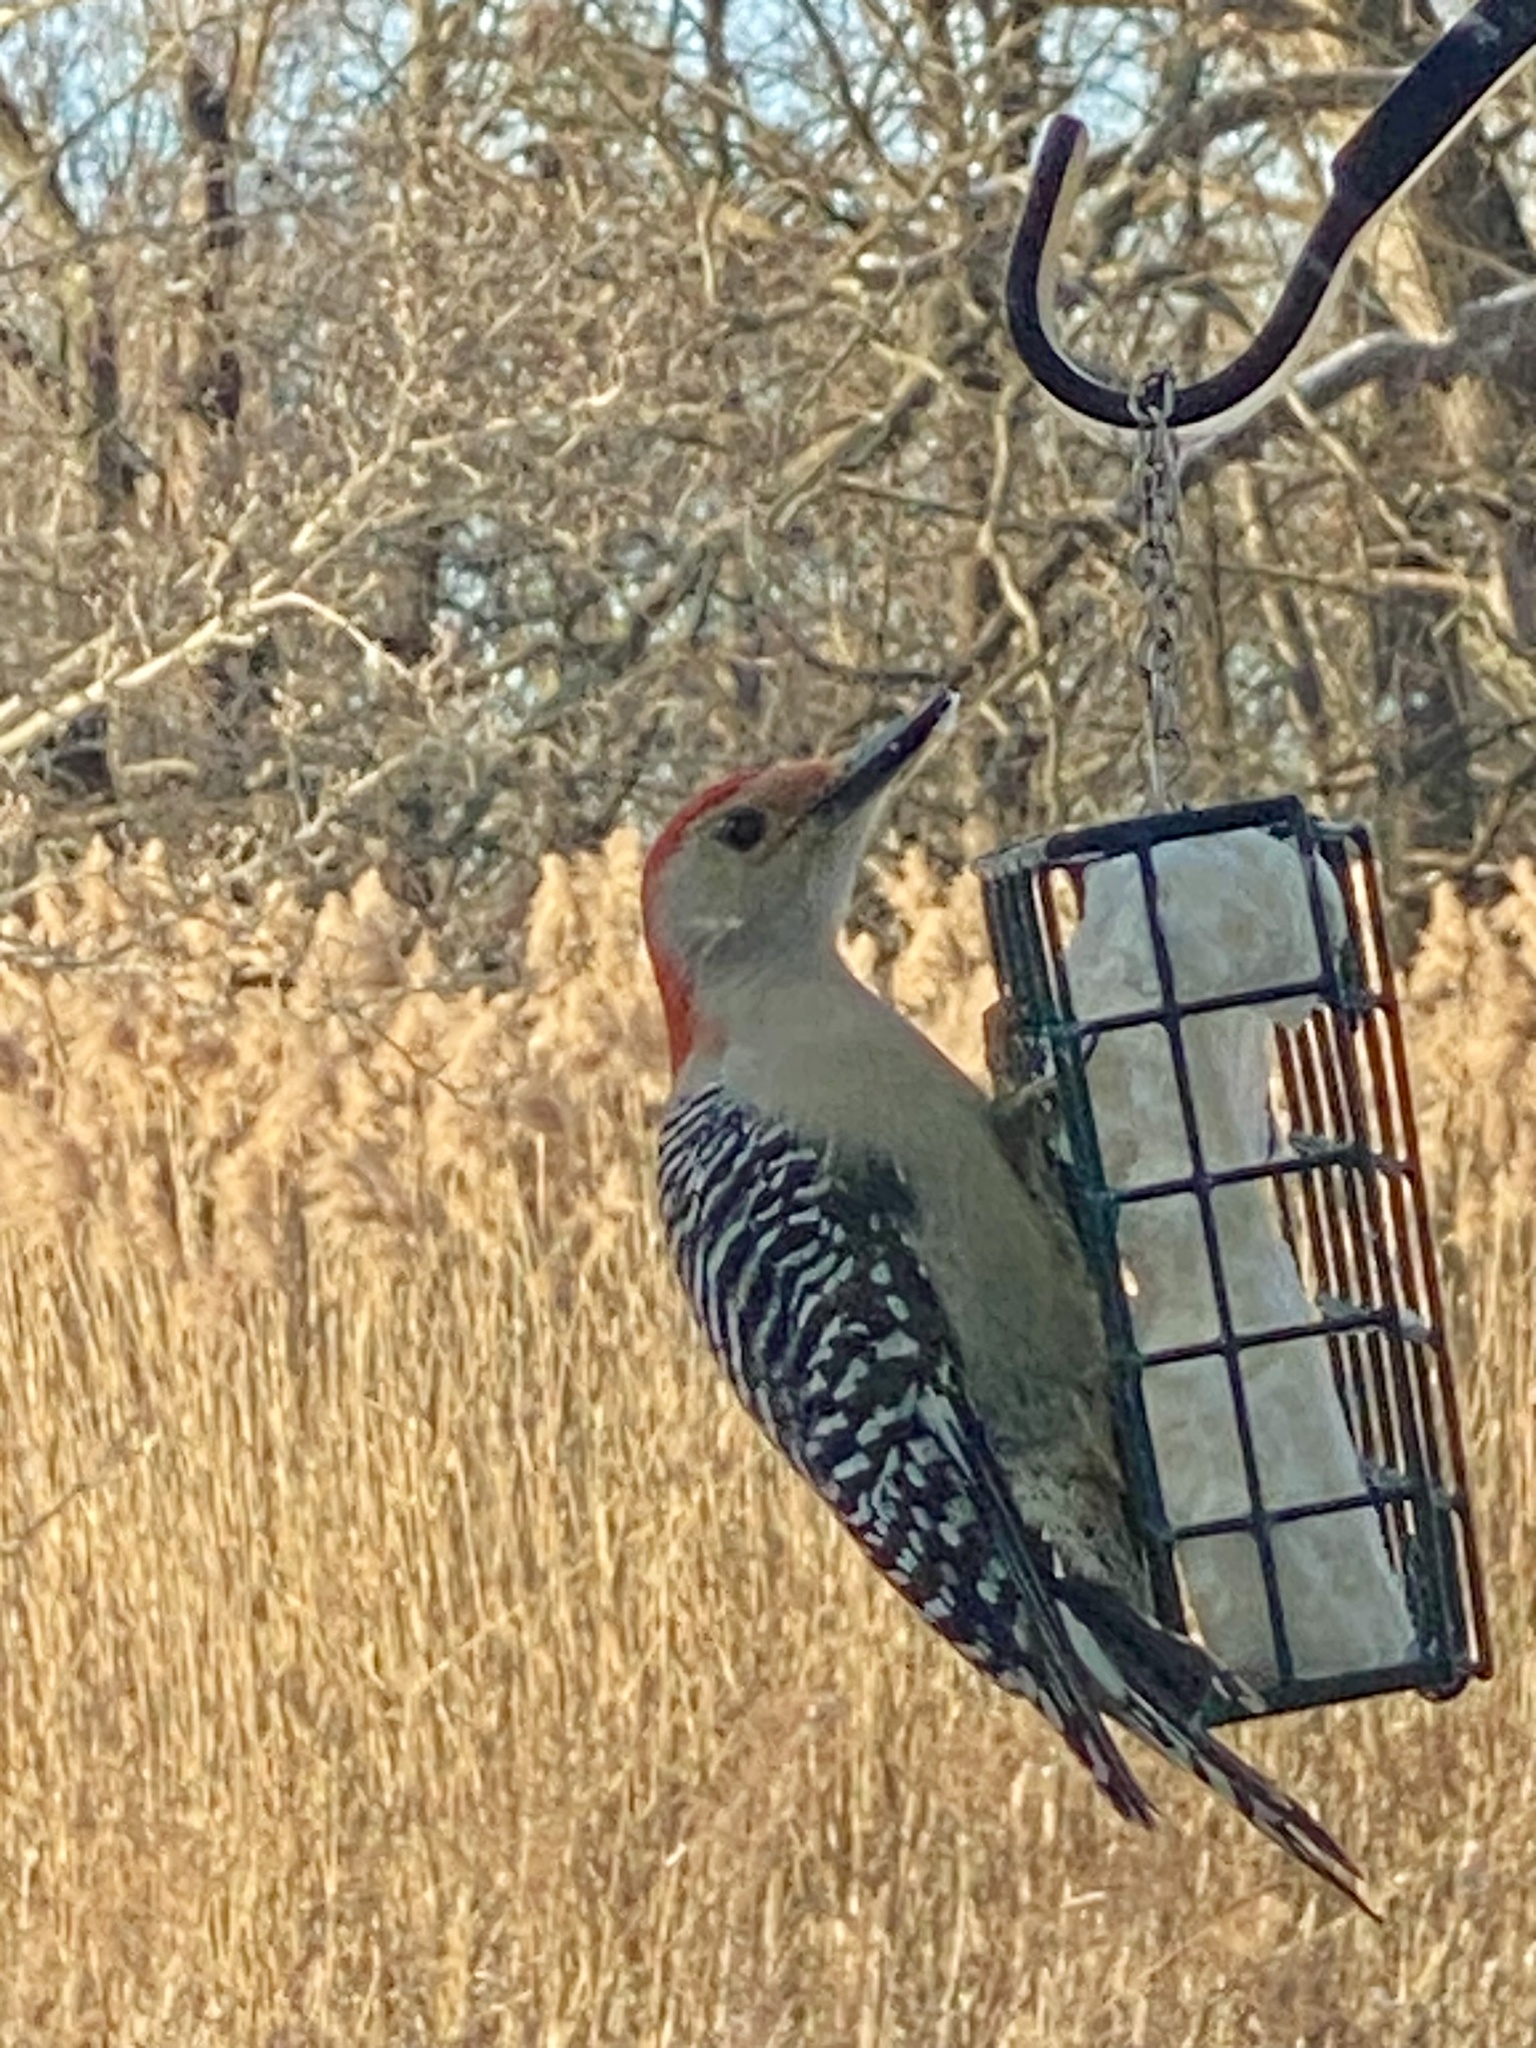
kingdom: Animalia
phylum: Chordata
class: Aves
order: Piciformes
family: Picidae
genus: Melanerpes
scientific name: Melanerpes carolinus
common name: Red-bellied woodpecker
